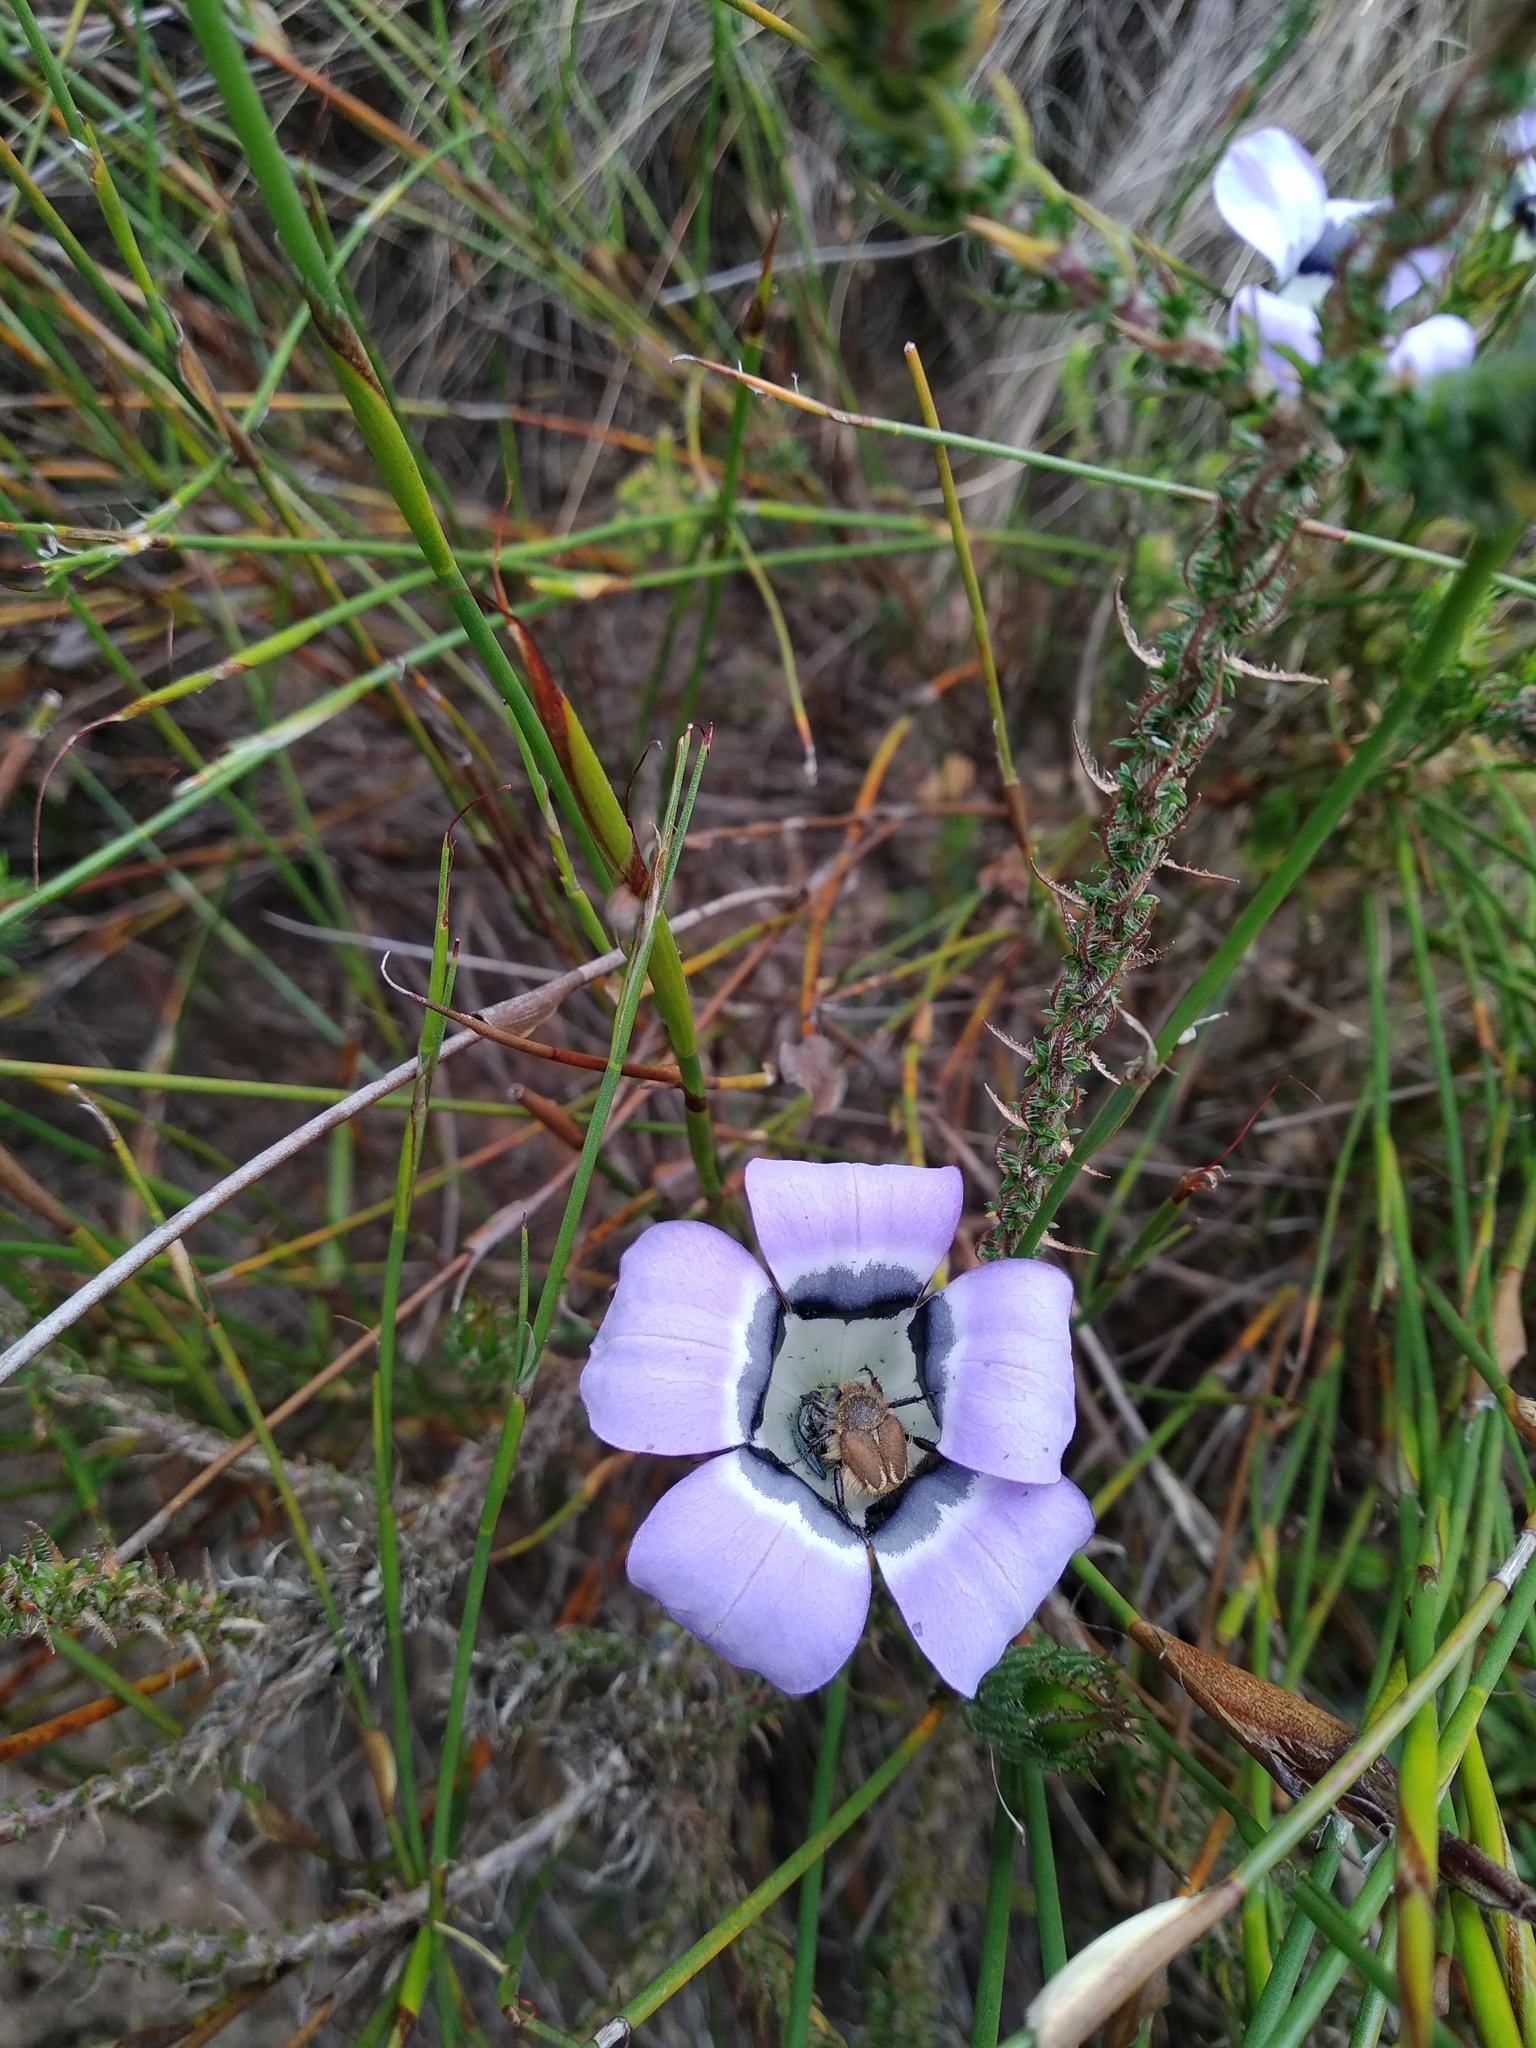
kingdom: Plantae
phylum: Tracheophyta
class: Magnoliopsida
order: Asterales
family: Campanulaceae
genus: Roella
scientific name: Roella ciliata
